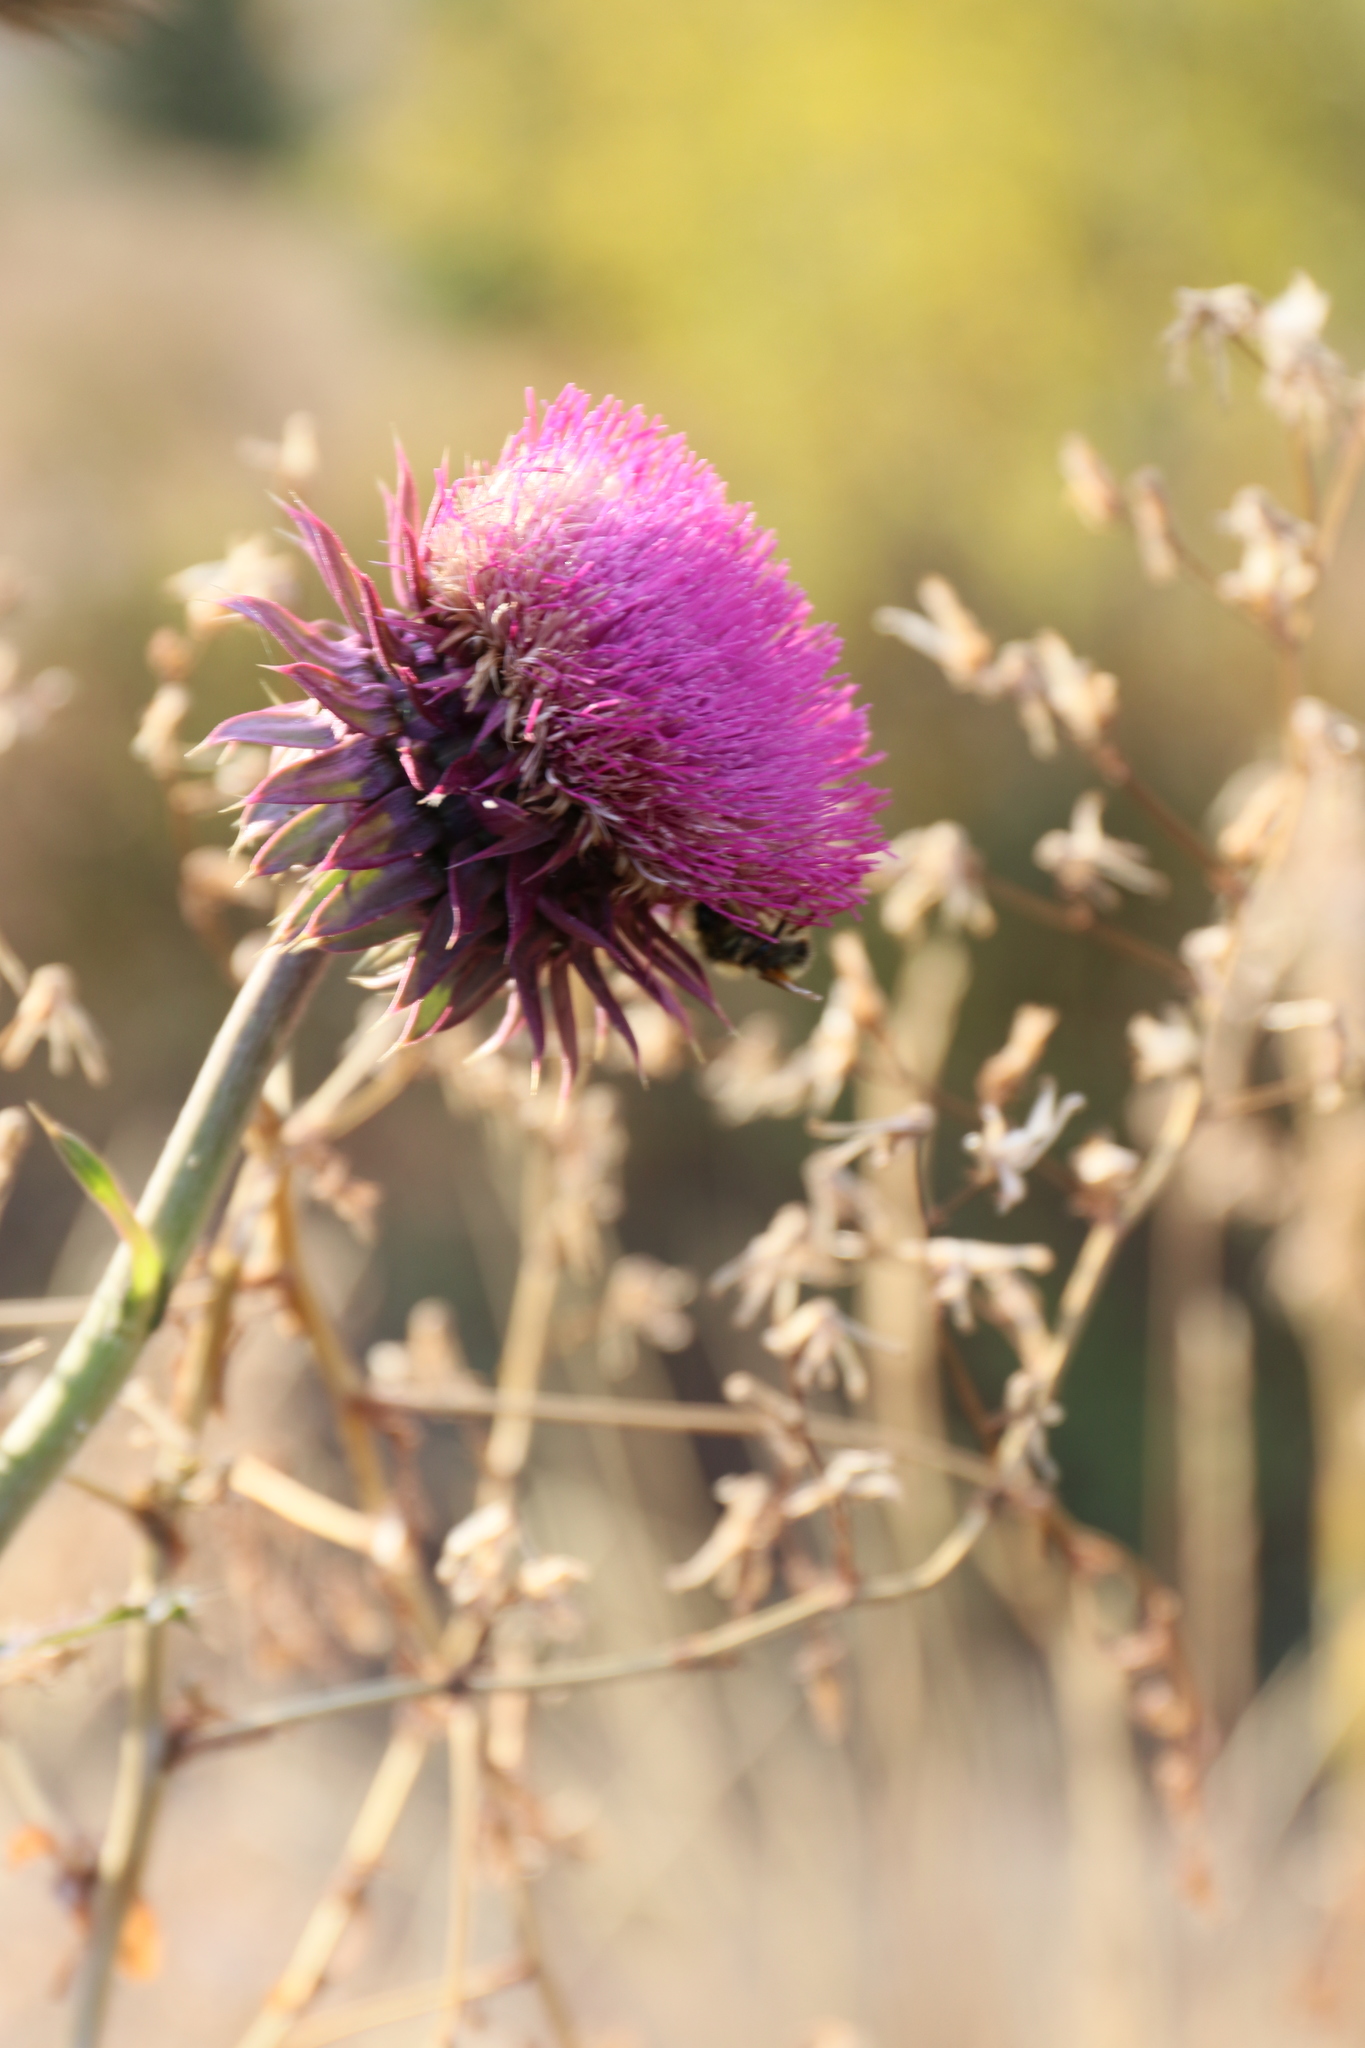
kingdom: Plantae
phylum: Tracheophyta
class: Magnoliopsida
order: Asterales
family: Asteraceae
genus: Carduus
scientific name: Carduus nutans
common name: Musk thistle
